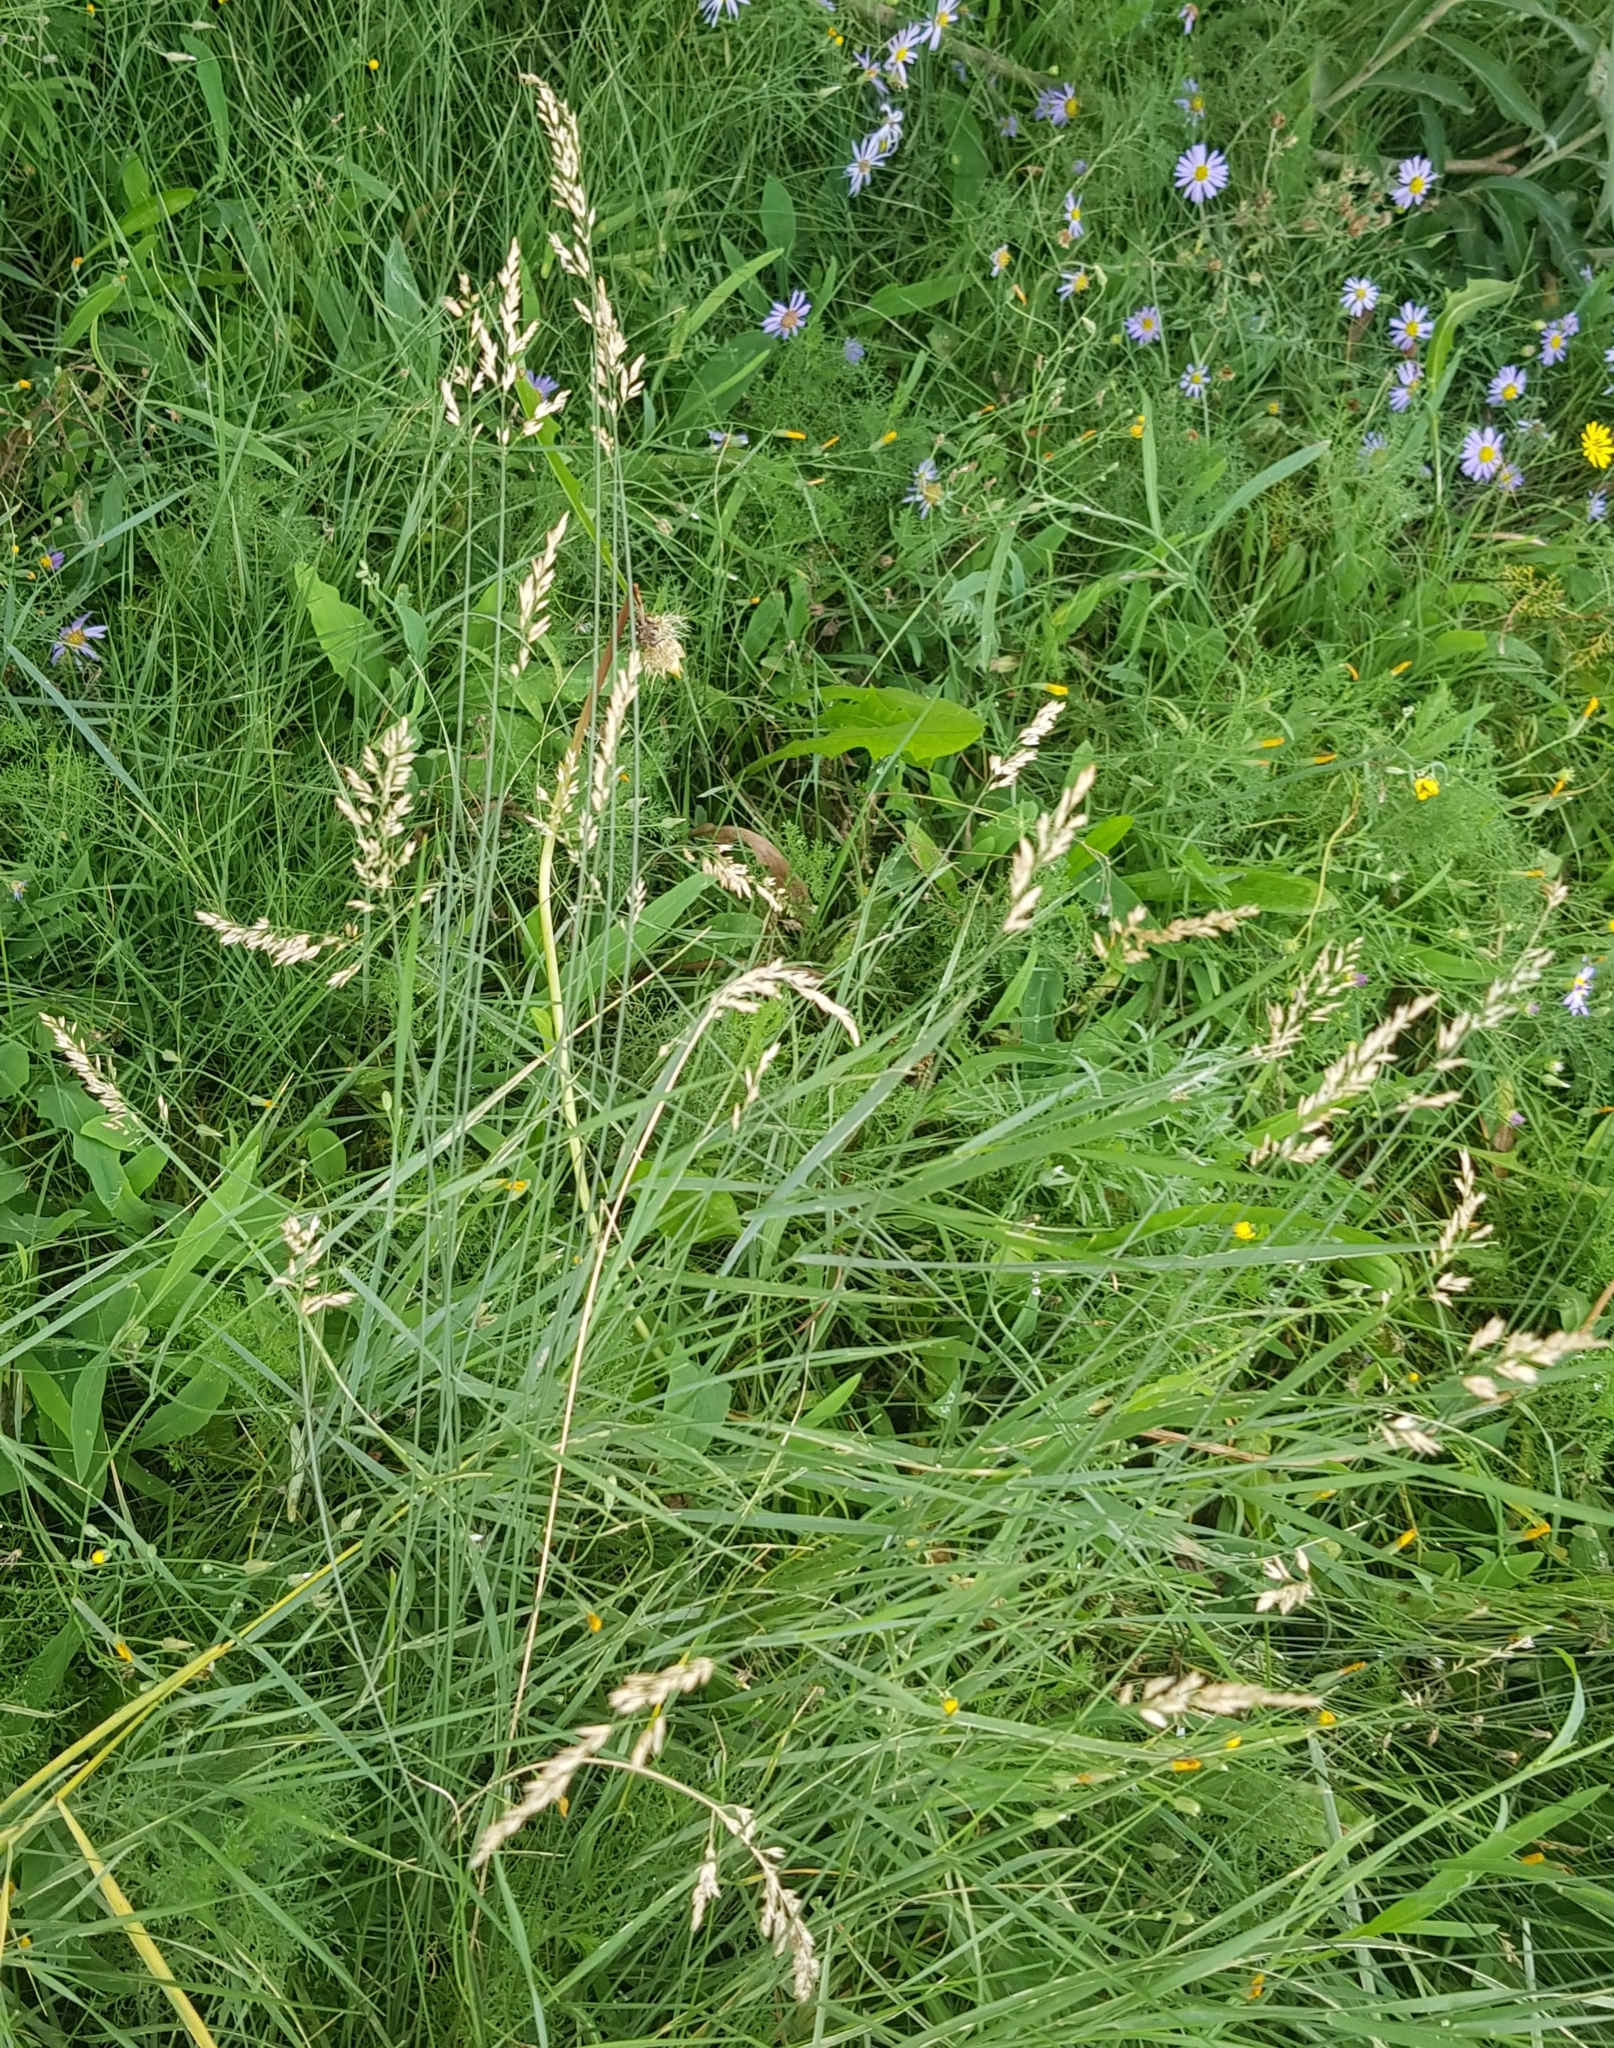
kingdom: Plantae
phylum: Tracheophyta
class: Liliopsida
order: Poales
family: Poaceae
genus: Poa
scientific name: Poa attenuata
